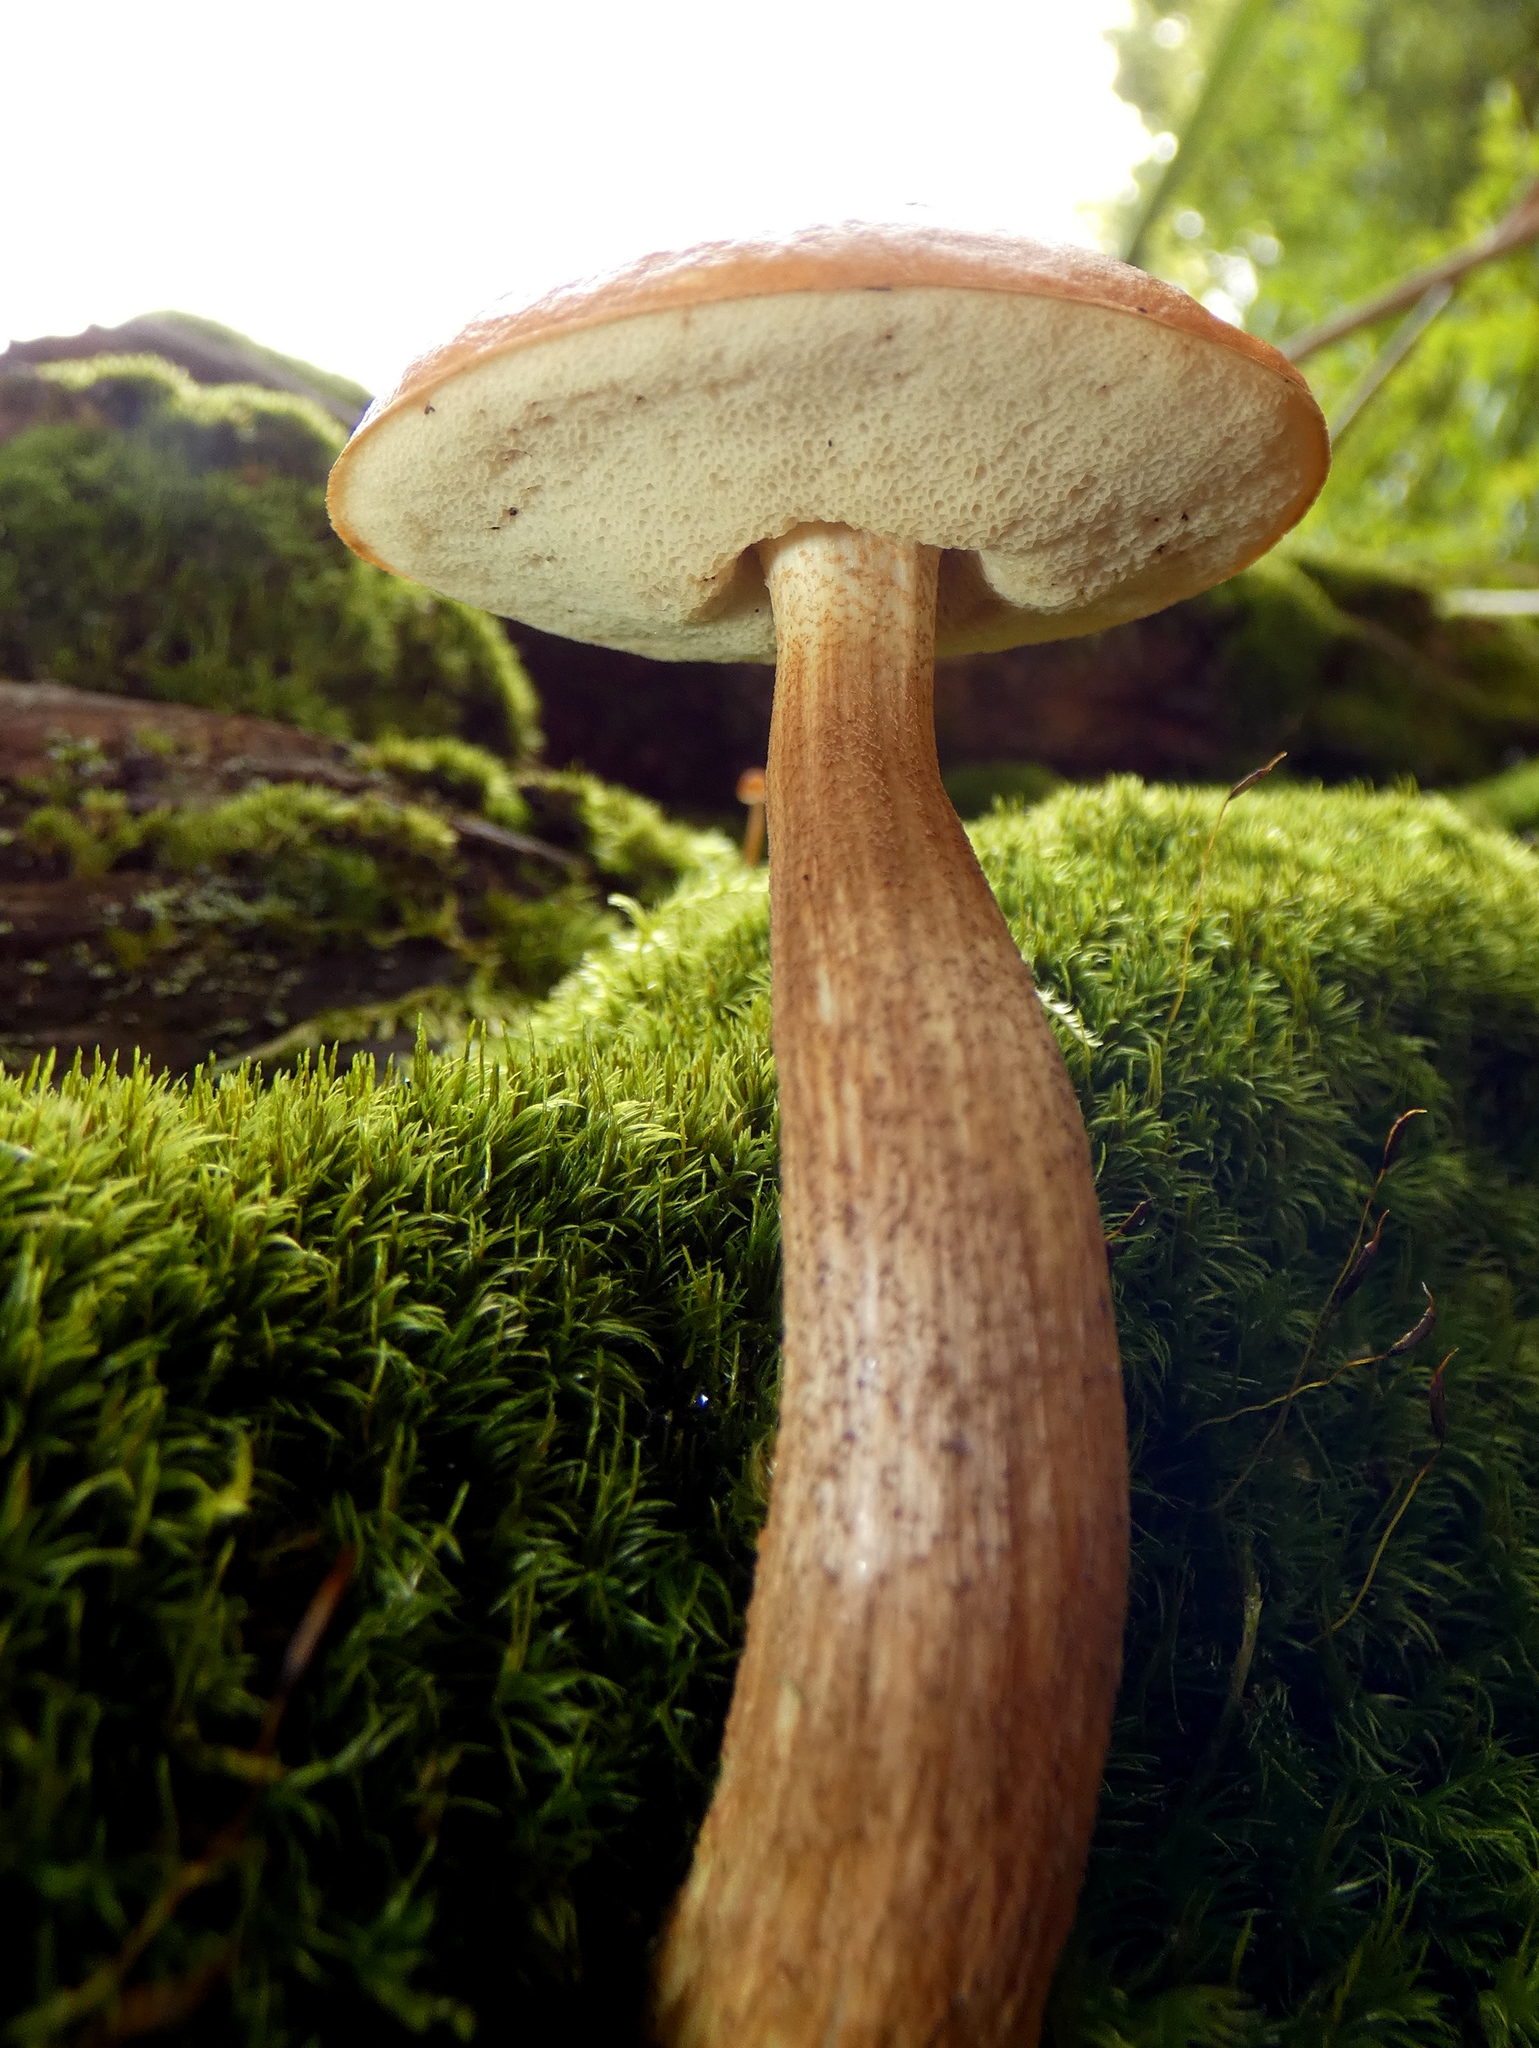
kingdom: Fungi
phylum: Basidiomycota
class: Agaricomycetes
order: Boletales
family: Boletaceae
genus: Leccinum
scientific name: Leccinum longicurvipes
